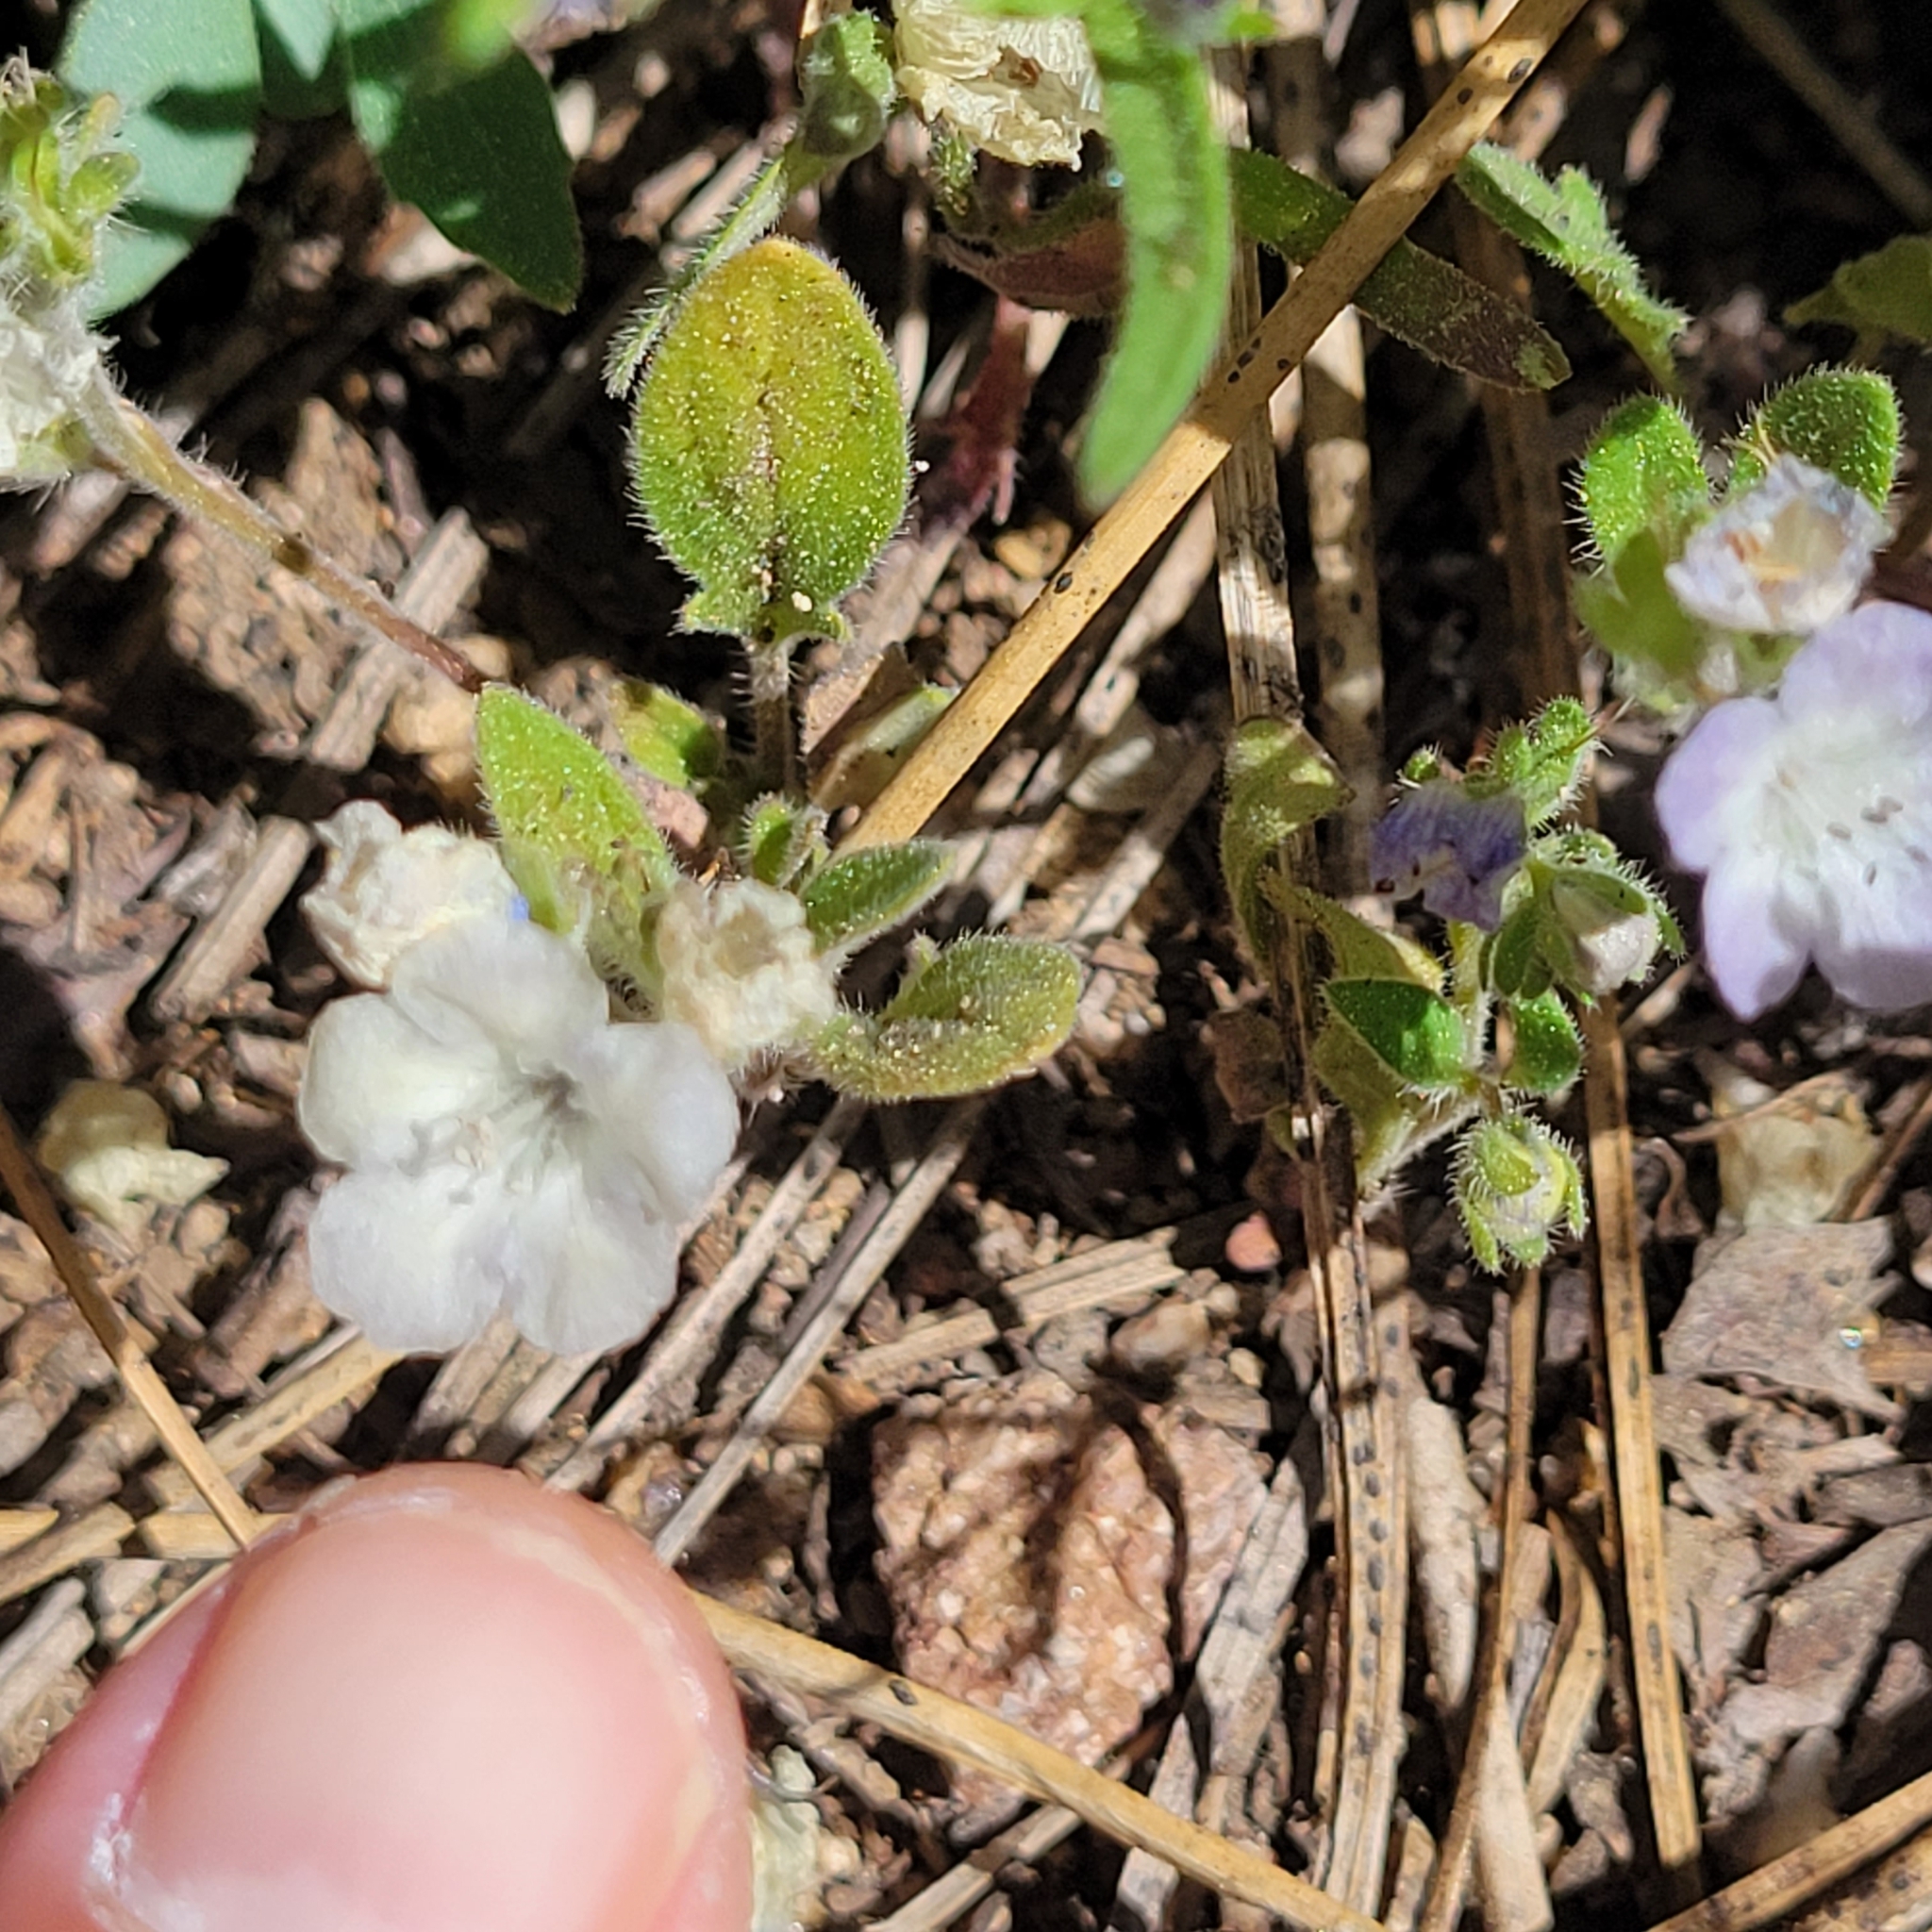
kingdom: Plantae
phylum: Tracheophyta
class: Magnoliopsida
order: Boraginales
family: Hydrophyllaceae
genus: Phacelia
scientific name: Phacelia curvipes
